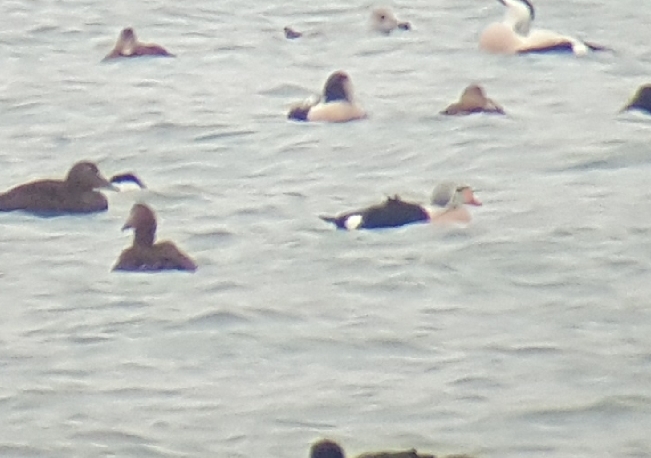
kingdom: Animalia
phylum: Chordata
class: Aves
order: Anseriformes
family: Anatidae
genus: Somateria
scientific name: Somateria spectabilis
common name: King eider
